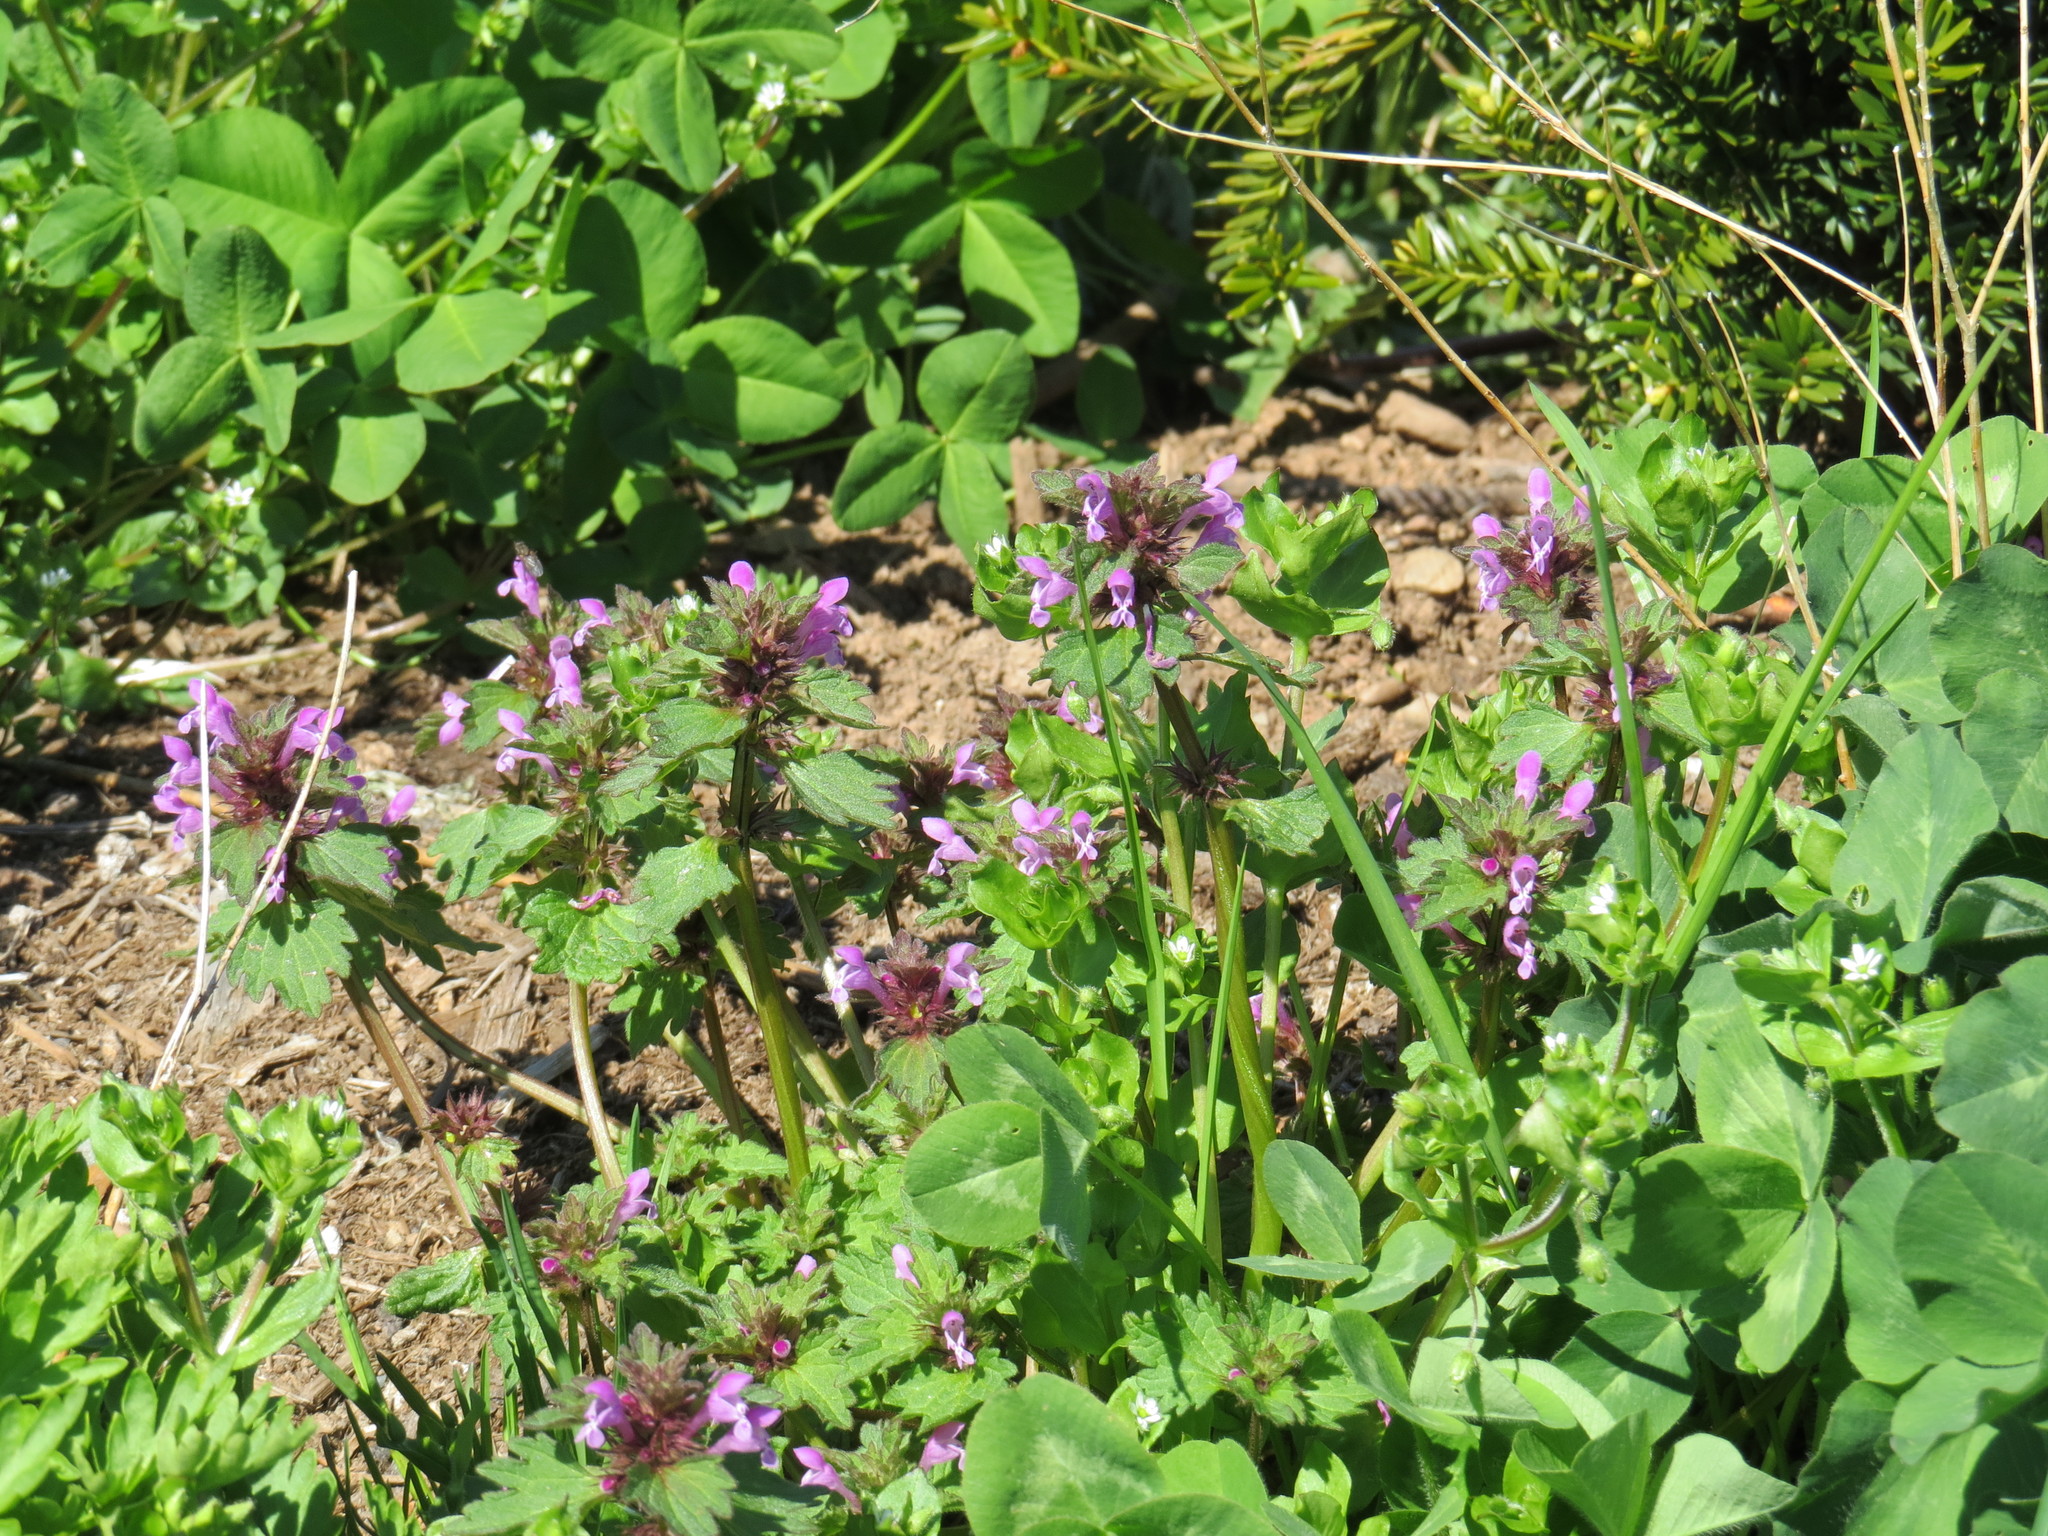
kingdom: Plantae
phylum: Tracheophyta
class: Magnoliopsida
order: Lamiales
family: Lamiaceae
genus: Lamium
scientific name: Lamium hybridum
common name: Cut-leaved dead-nettle
